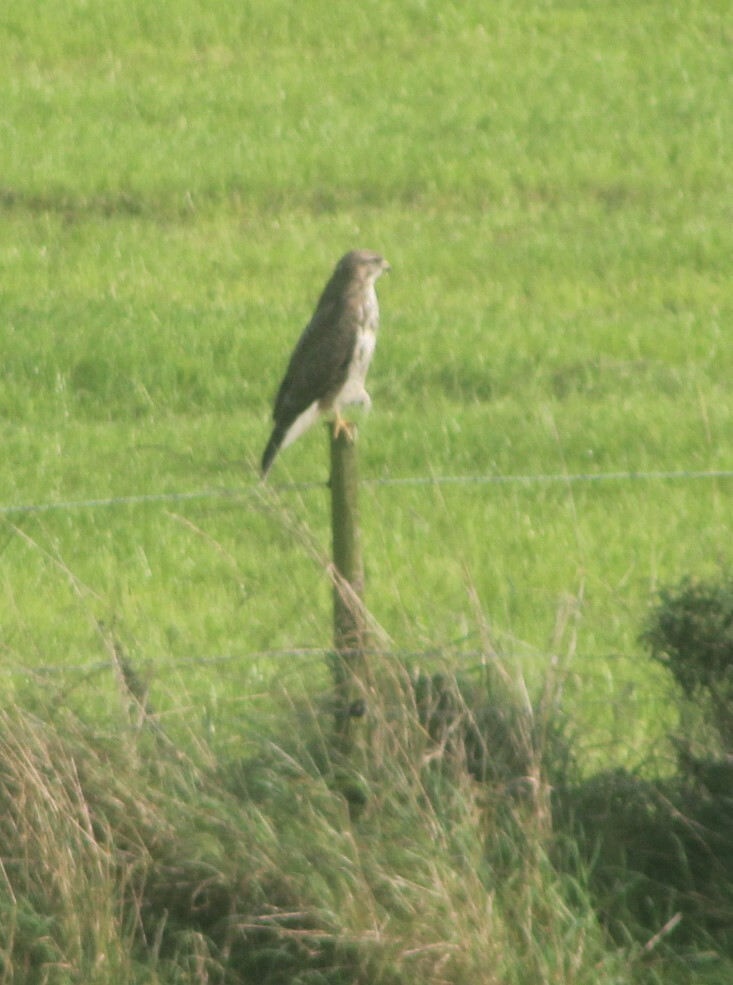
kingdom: Animalia
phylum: Chordata
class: Aves
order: Accipitriformes
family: Accipitridae
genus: Buteo
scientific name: Buteo buteo
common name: Common buzzard
